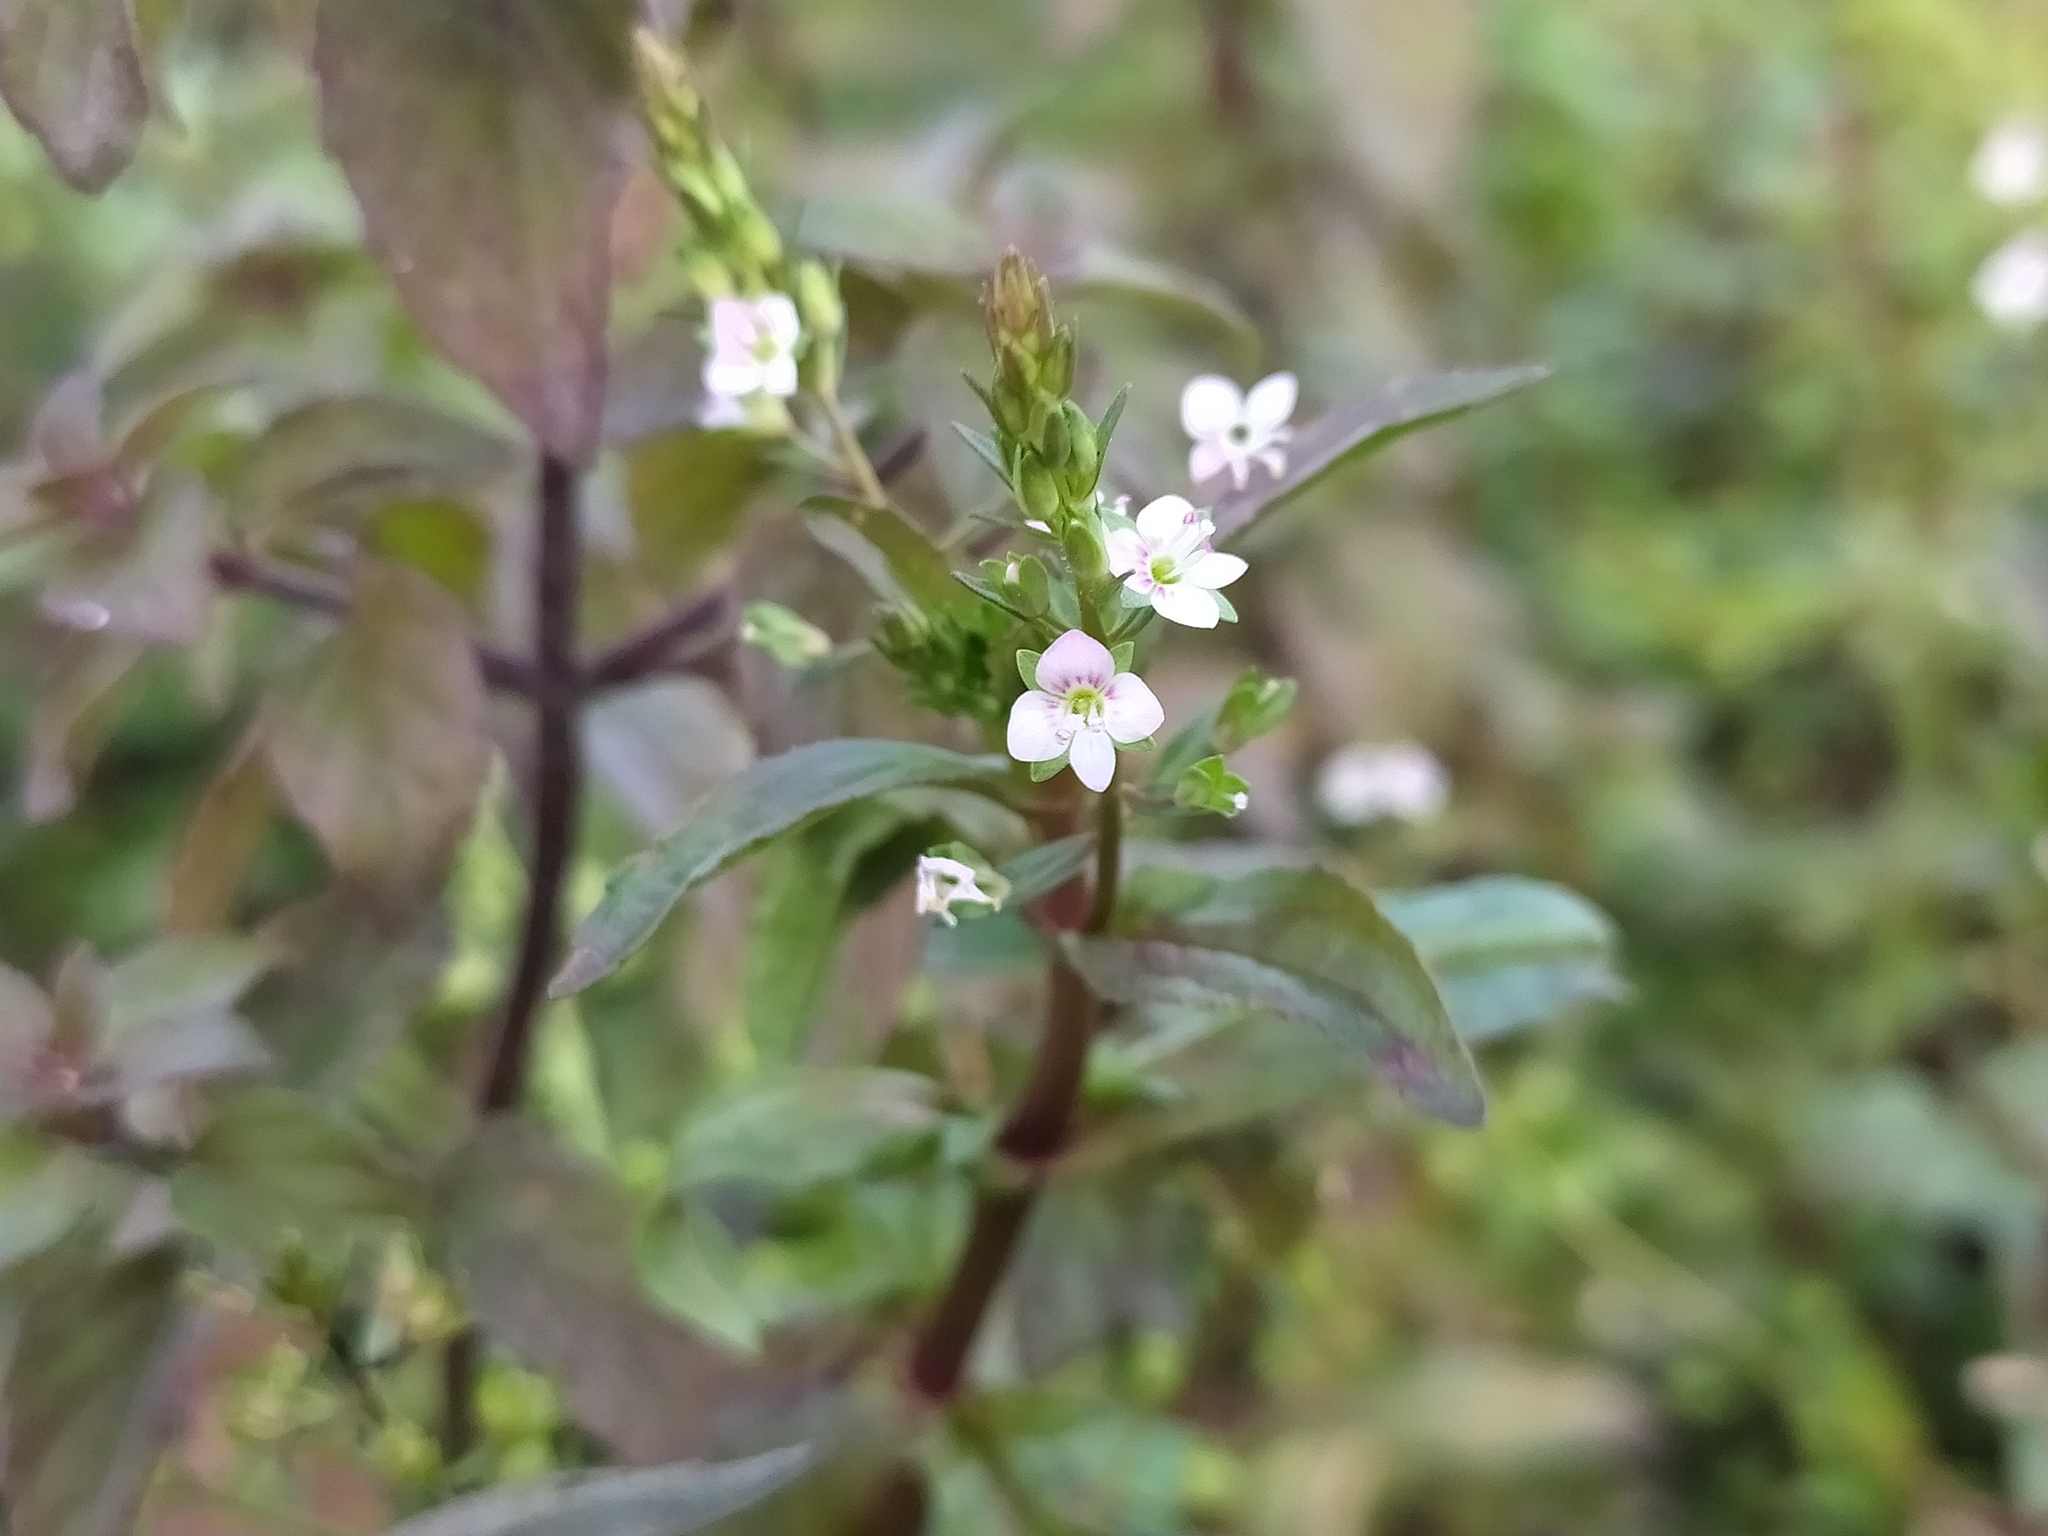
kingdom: Plantae
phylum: Tracheophyta
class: Magnoliopsida
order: Lamiales
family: Plantaginaceae
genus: Veronica
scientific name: Veronica catenata
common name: Pink water-speedwell
